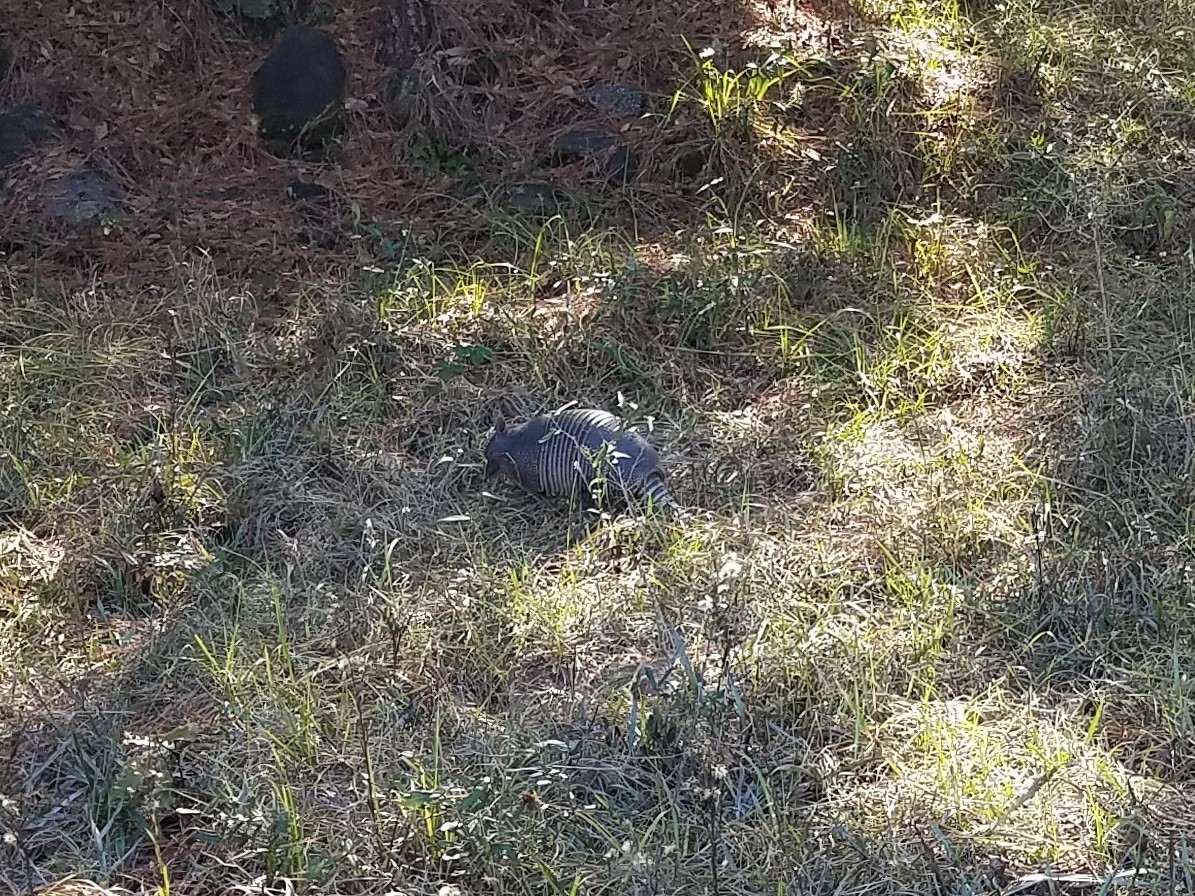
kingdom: Animalia
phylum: Chordata
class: Mammalia
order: Cingulata
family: Dasypodidae
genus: Dasypus
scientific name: Dasypus novemcinctus
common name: Nine-banded armadillo
